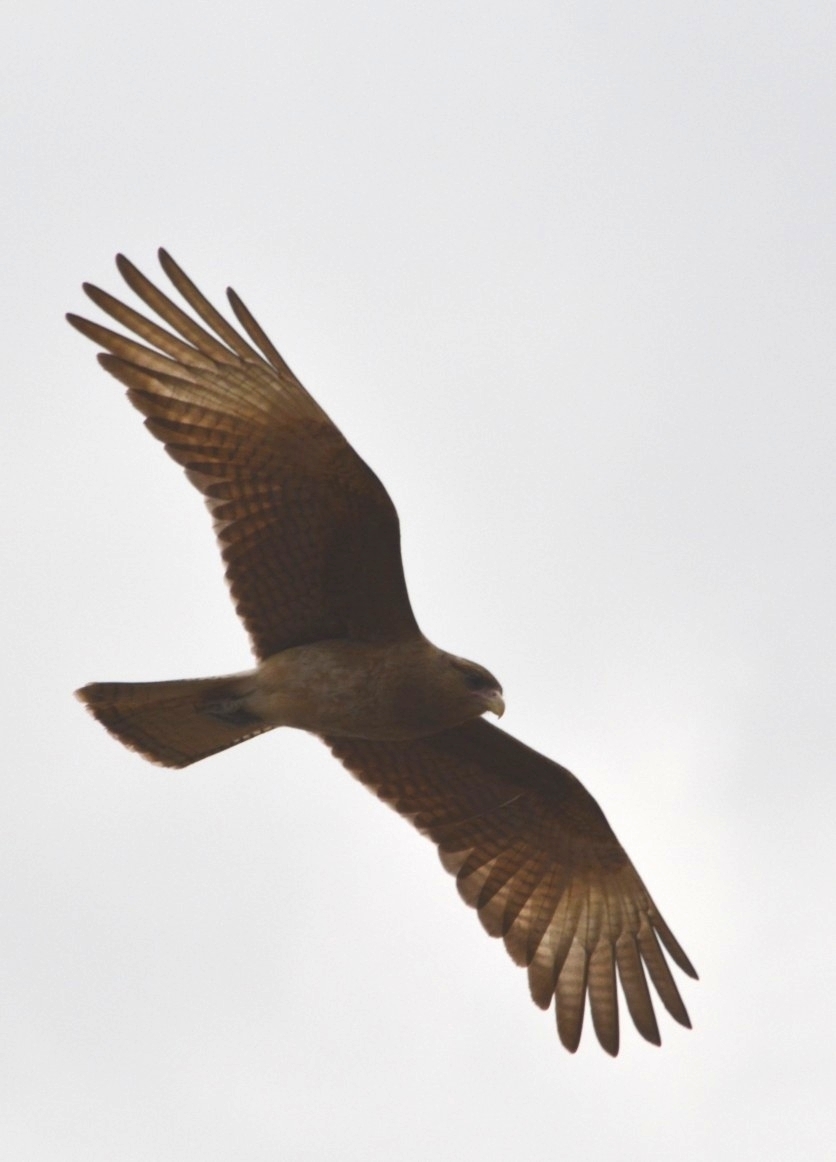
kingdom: Animalia
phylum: Chordata
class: Aves
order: Falconiformes
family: Falconidae
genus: Daptrius
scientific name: Daptrius
